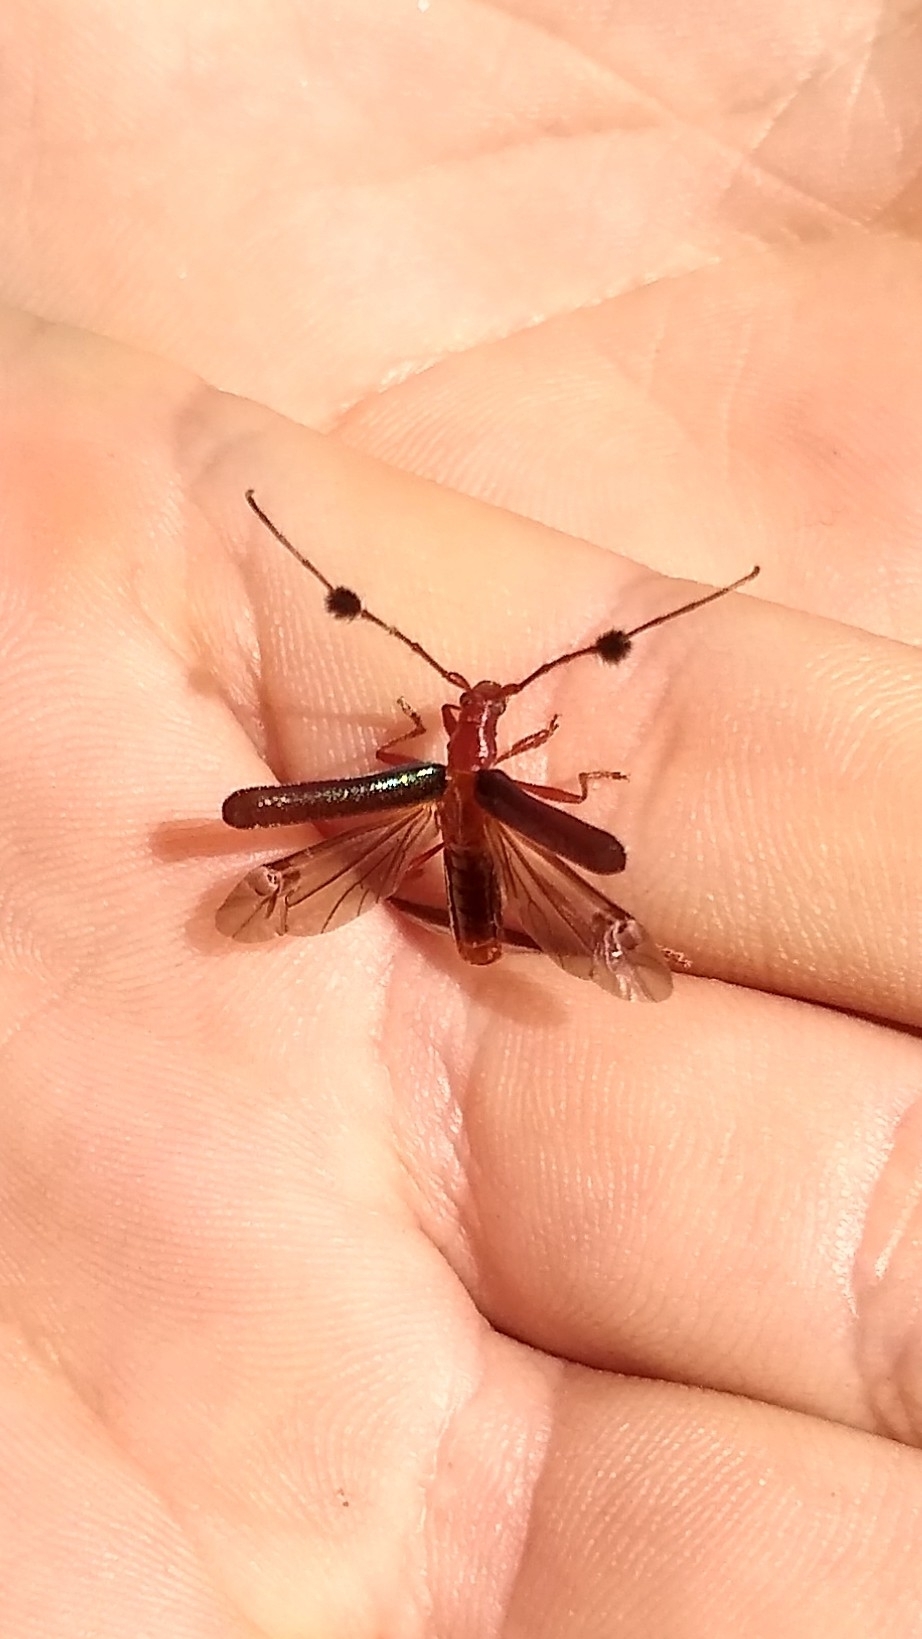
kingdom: Animalia
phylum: Arthropoda
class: Insecta
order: Coleoptera
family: Cerambycidae
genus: Paromoeocerus
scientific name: Paromoeocerus barbicornis
